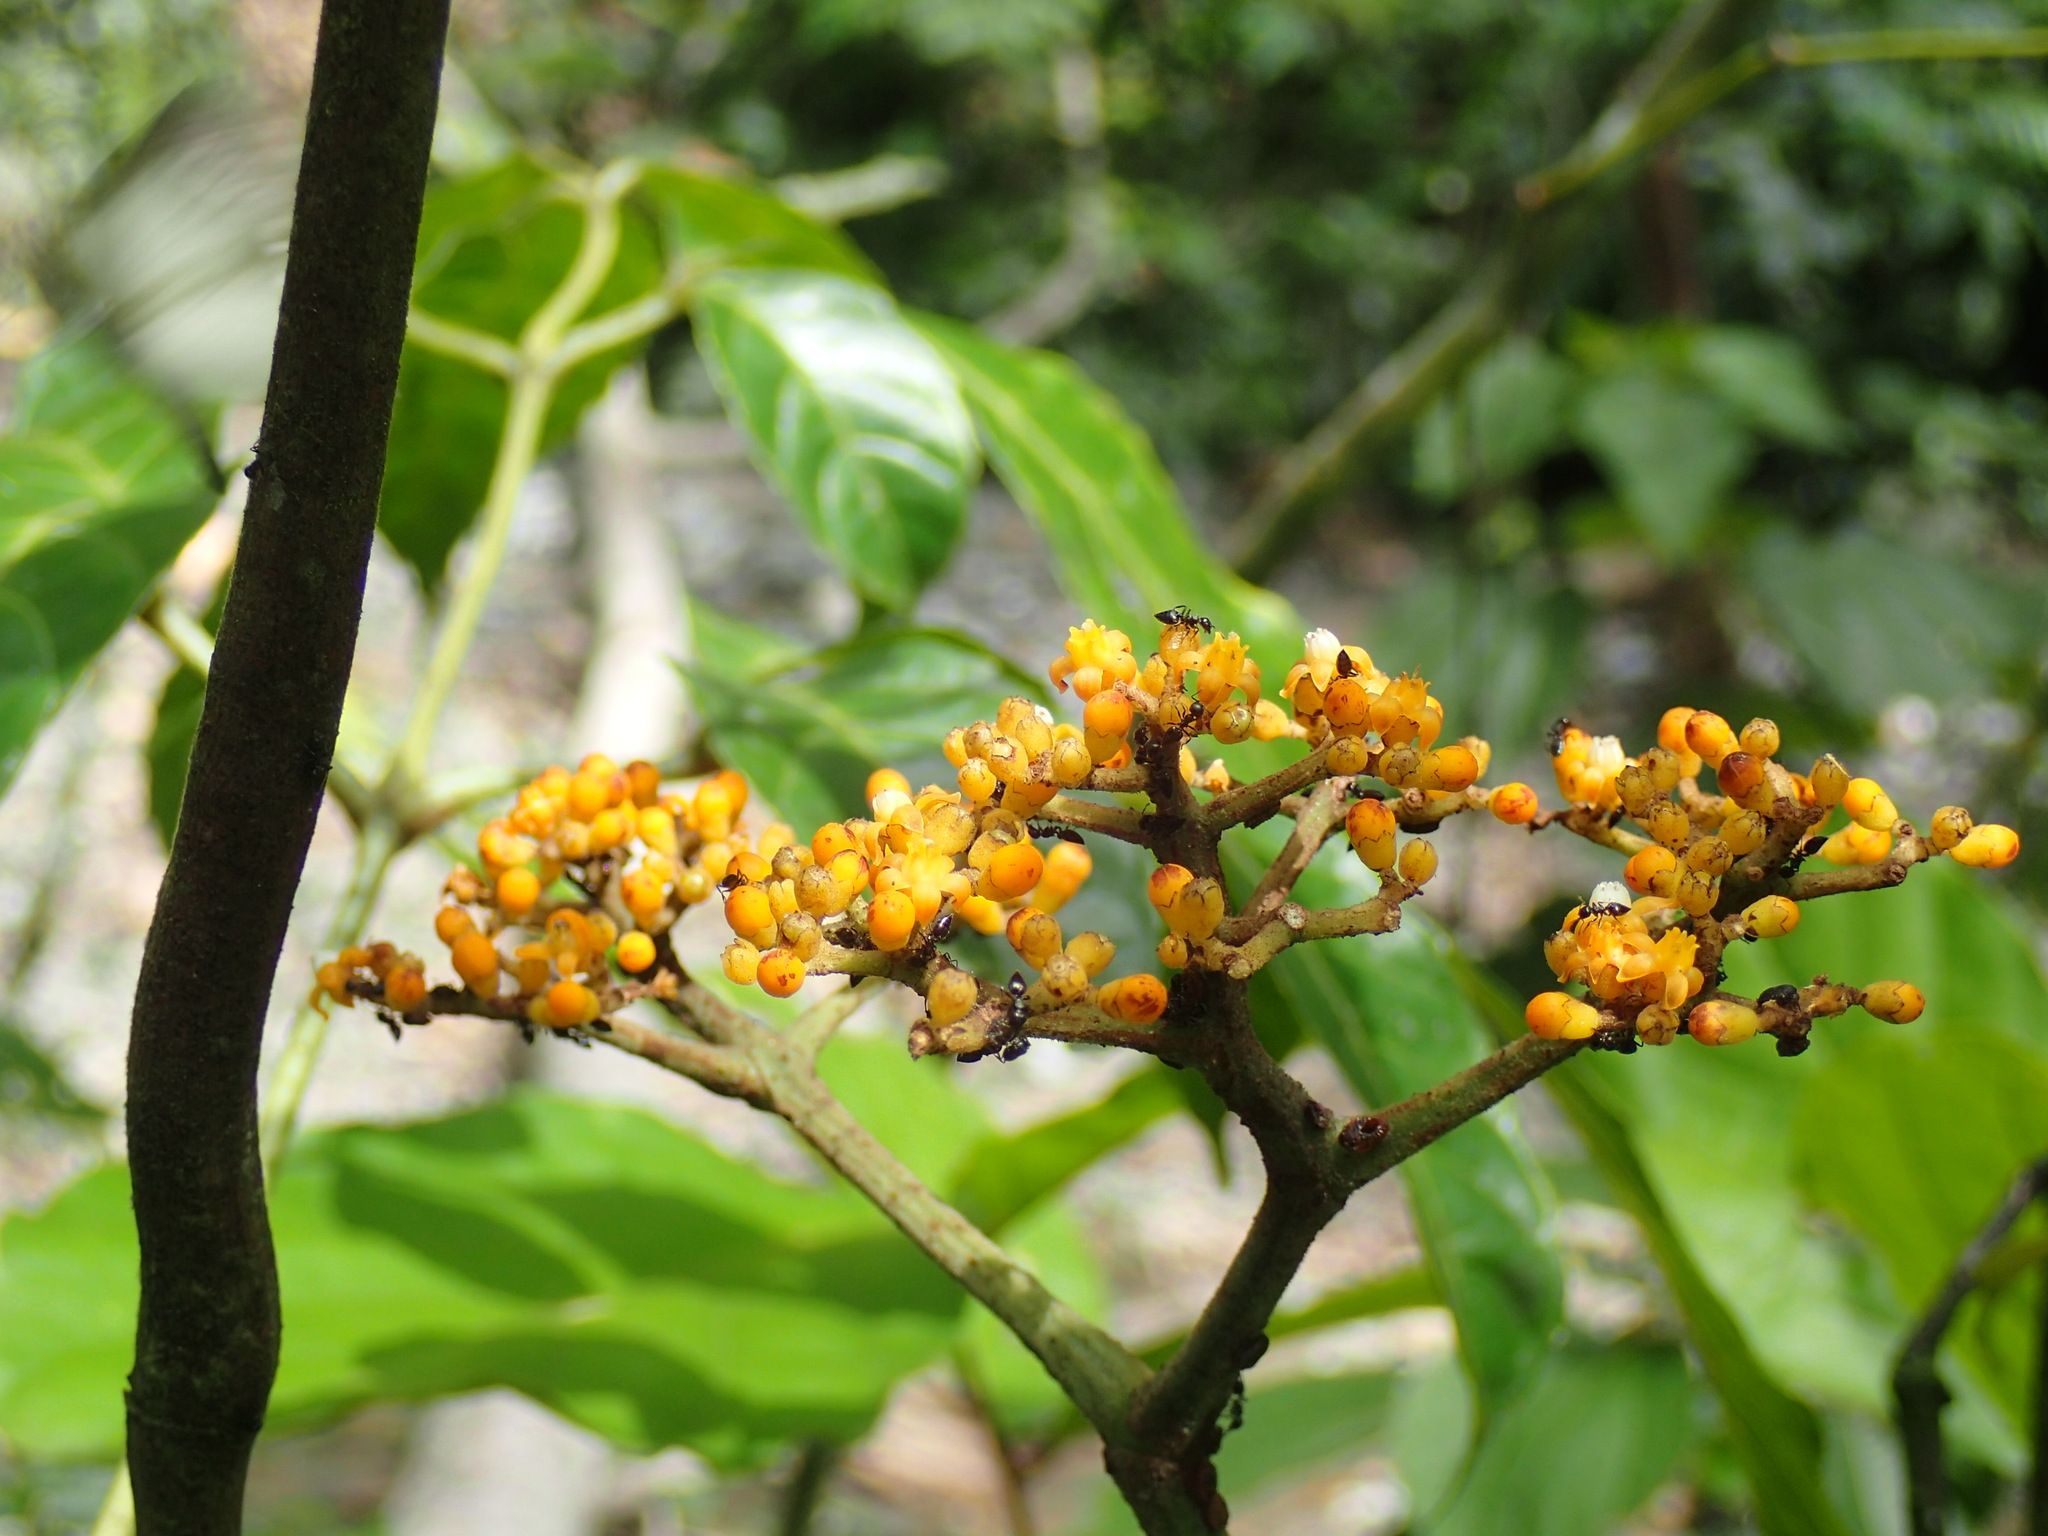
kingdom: Plantae
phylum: Tracheophyta
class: Magnoliopsida
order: Vitales
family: Vitaceae
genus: Leea
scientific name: Leea guineensis
